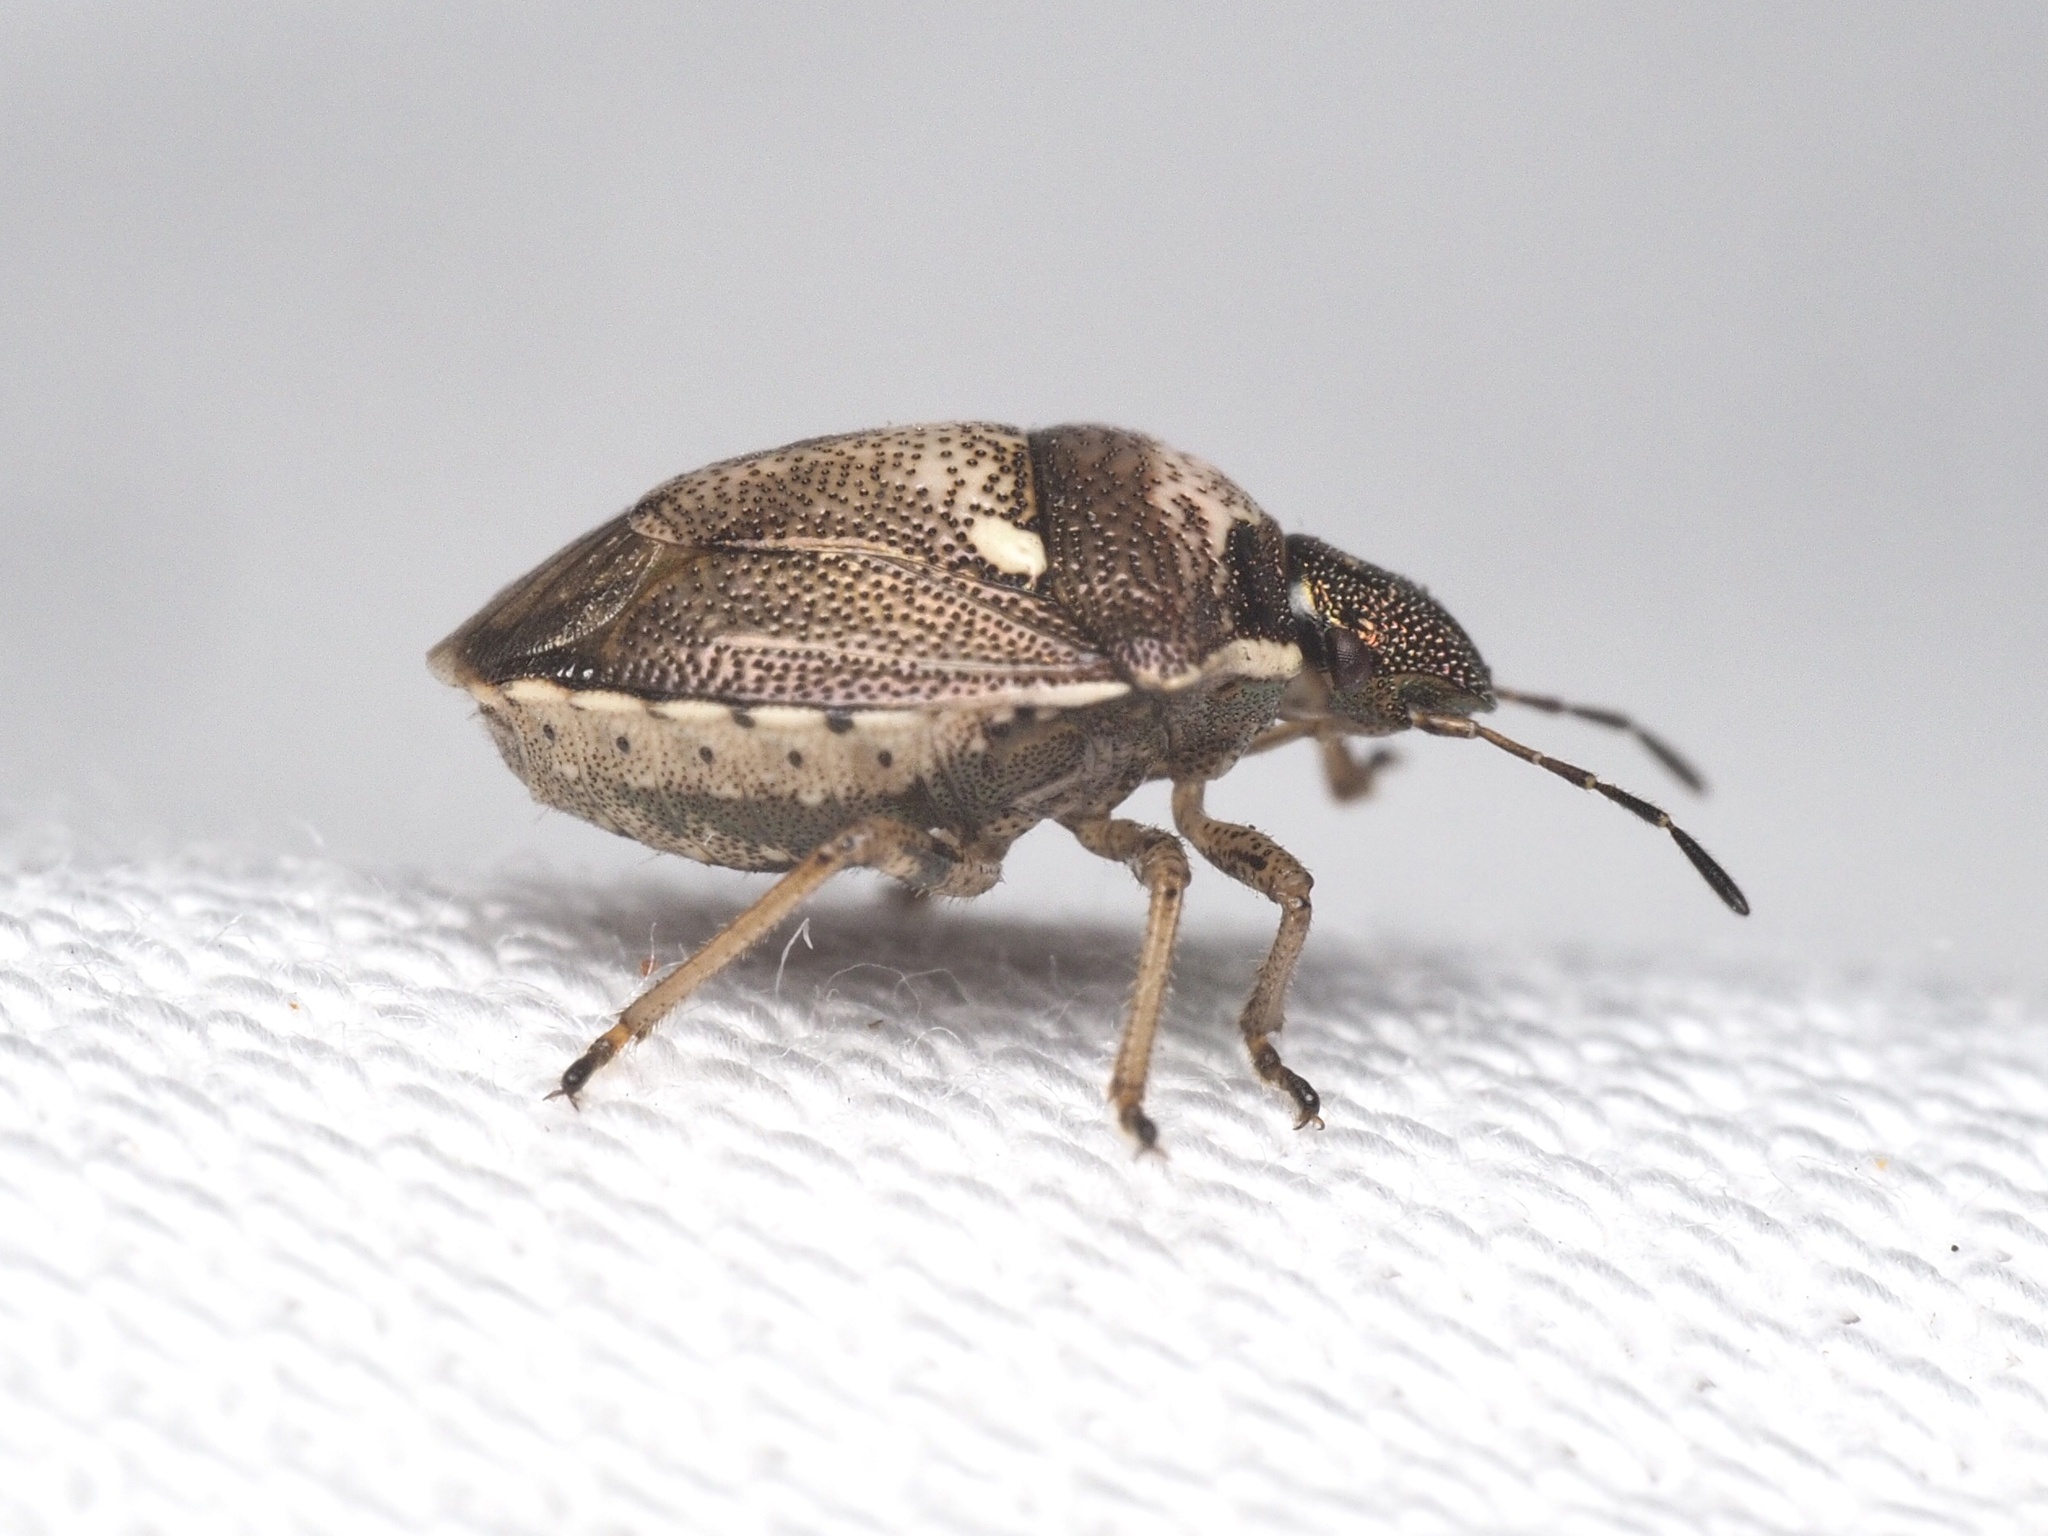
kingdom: Animalia
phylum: Arthropoda
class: Insecta
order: Hemiptera
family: Pentatomidae
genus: Eysarcoris
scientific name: Eysarcoris aeneus
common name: New forest shieldbug
